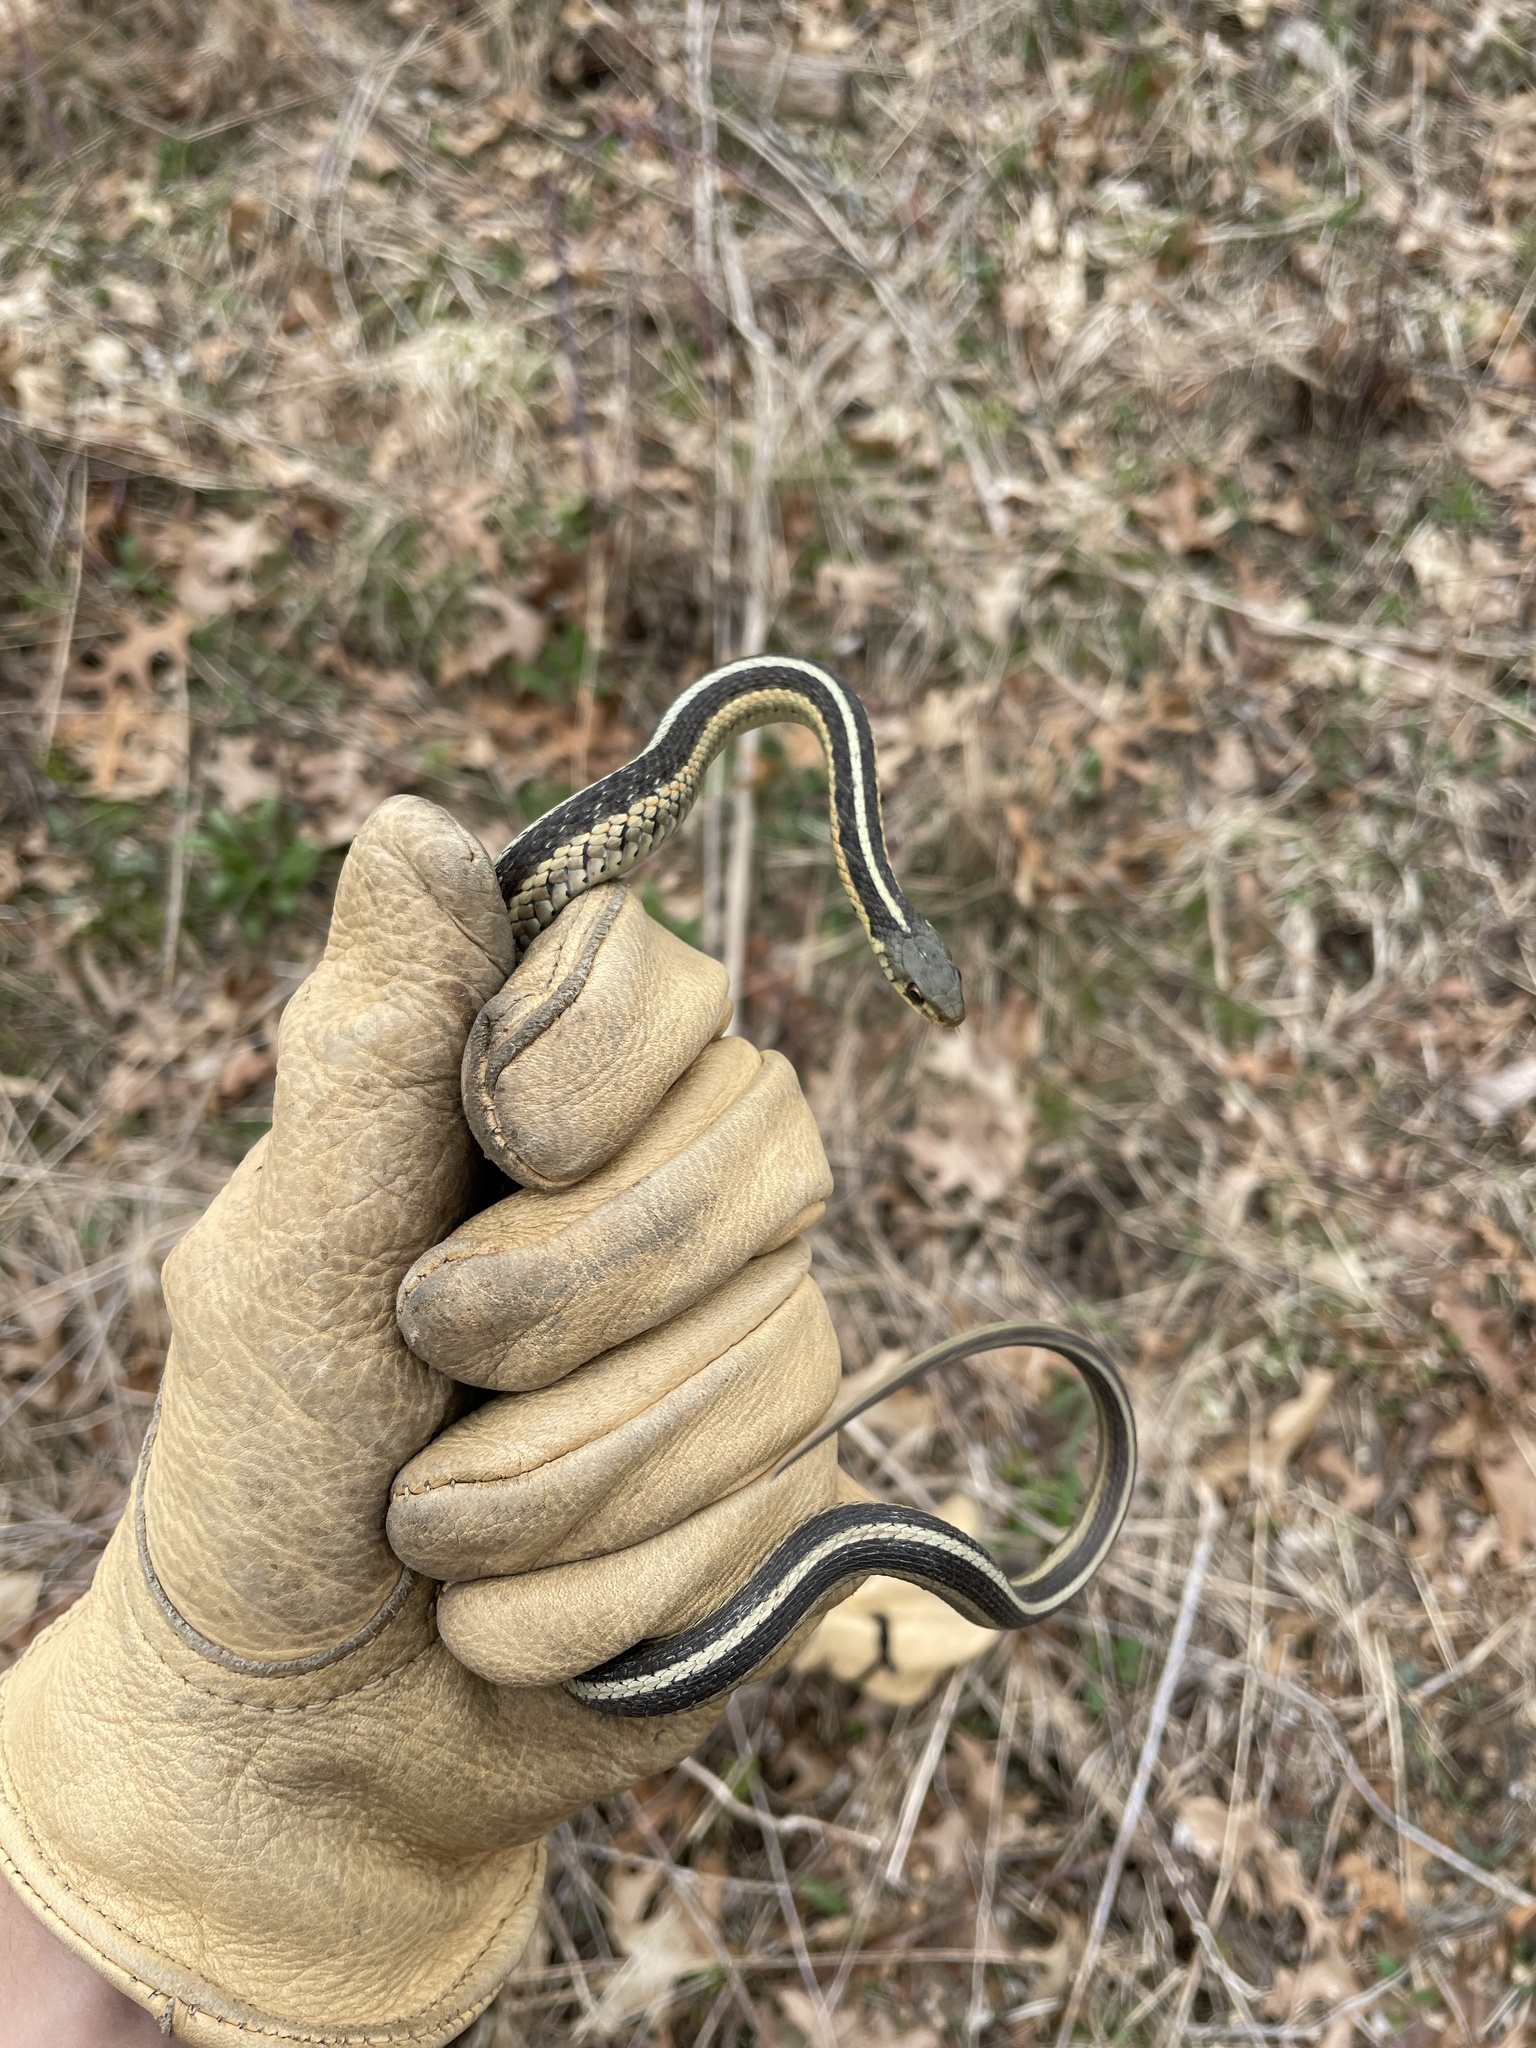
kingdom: Animalia
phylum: Chordata
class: Squamata
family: Colubridae
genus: Thamnophis
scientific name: Thamnophis sirtalis
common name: Common garter snake
